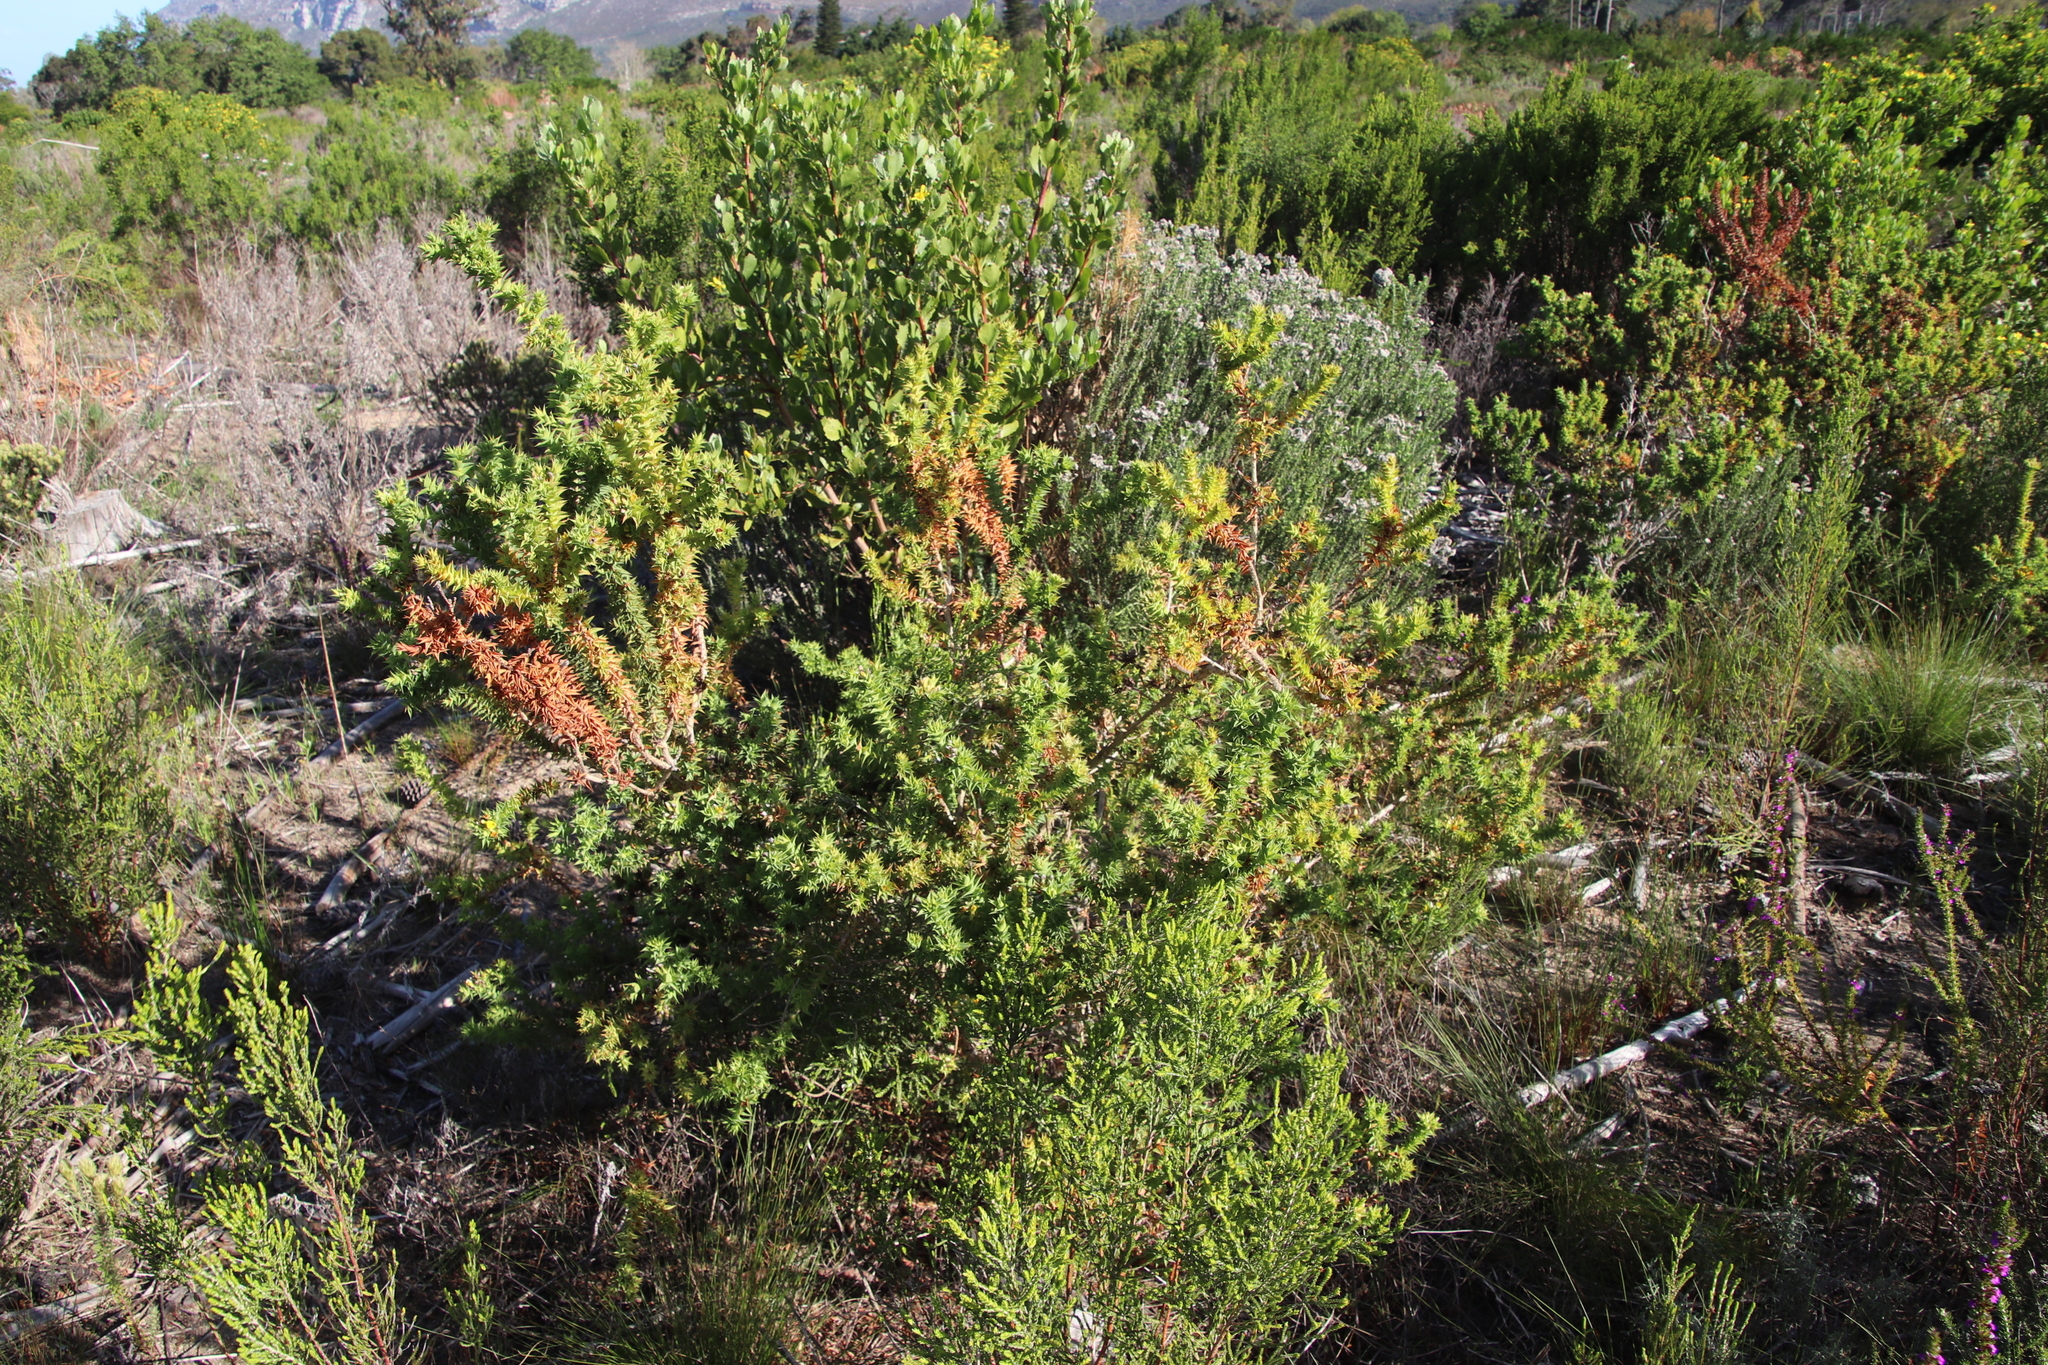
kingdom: Plantae
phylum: Tracheophyta
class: Magnoliopsida
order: Fabales
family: Fabaceae
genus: Aspalathus
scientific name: Aspalathus cordata
